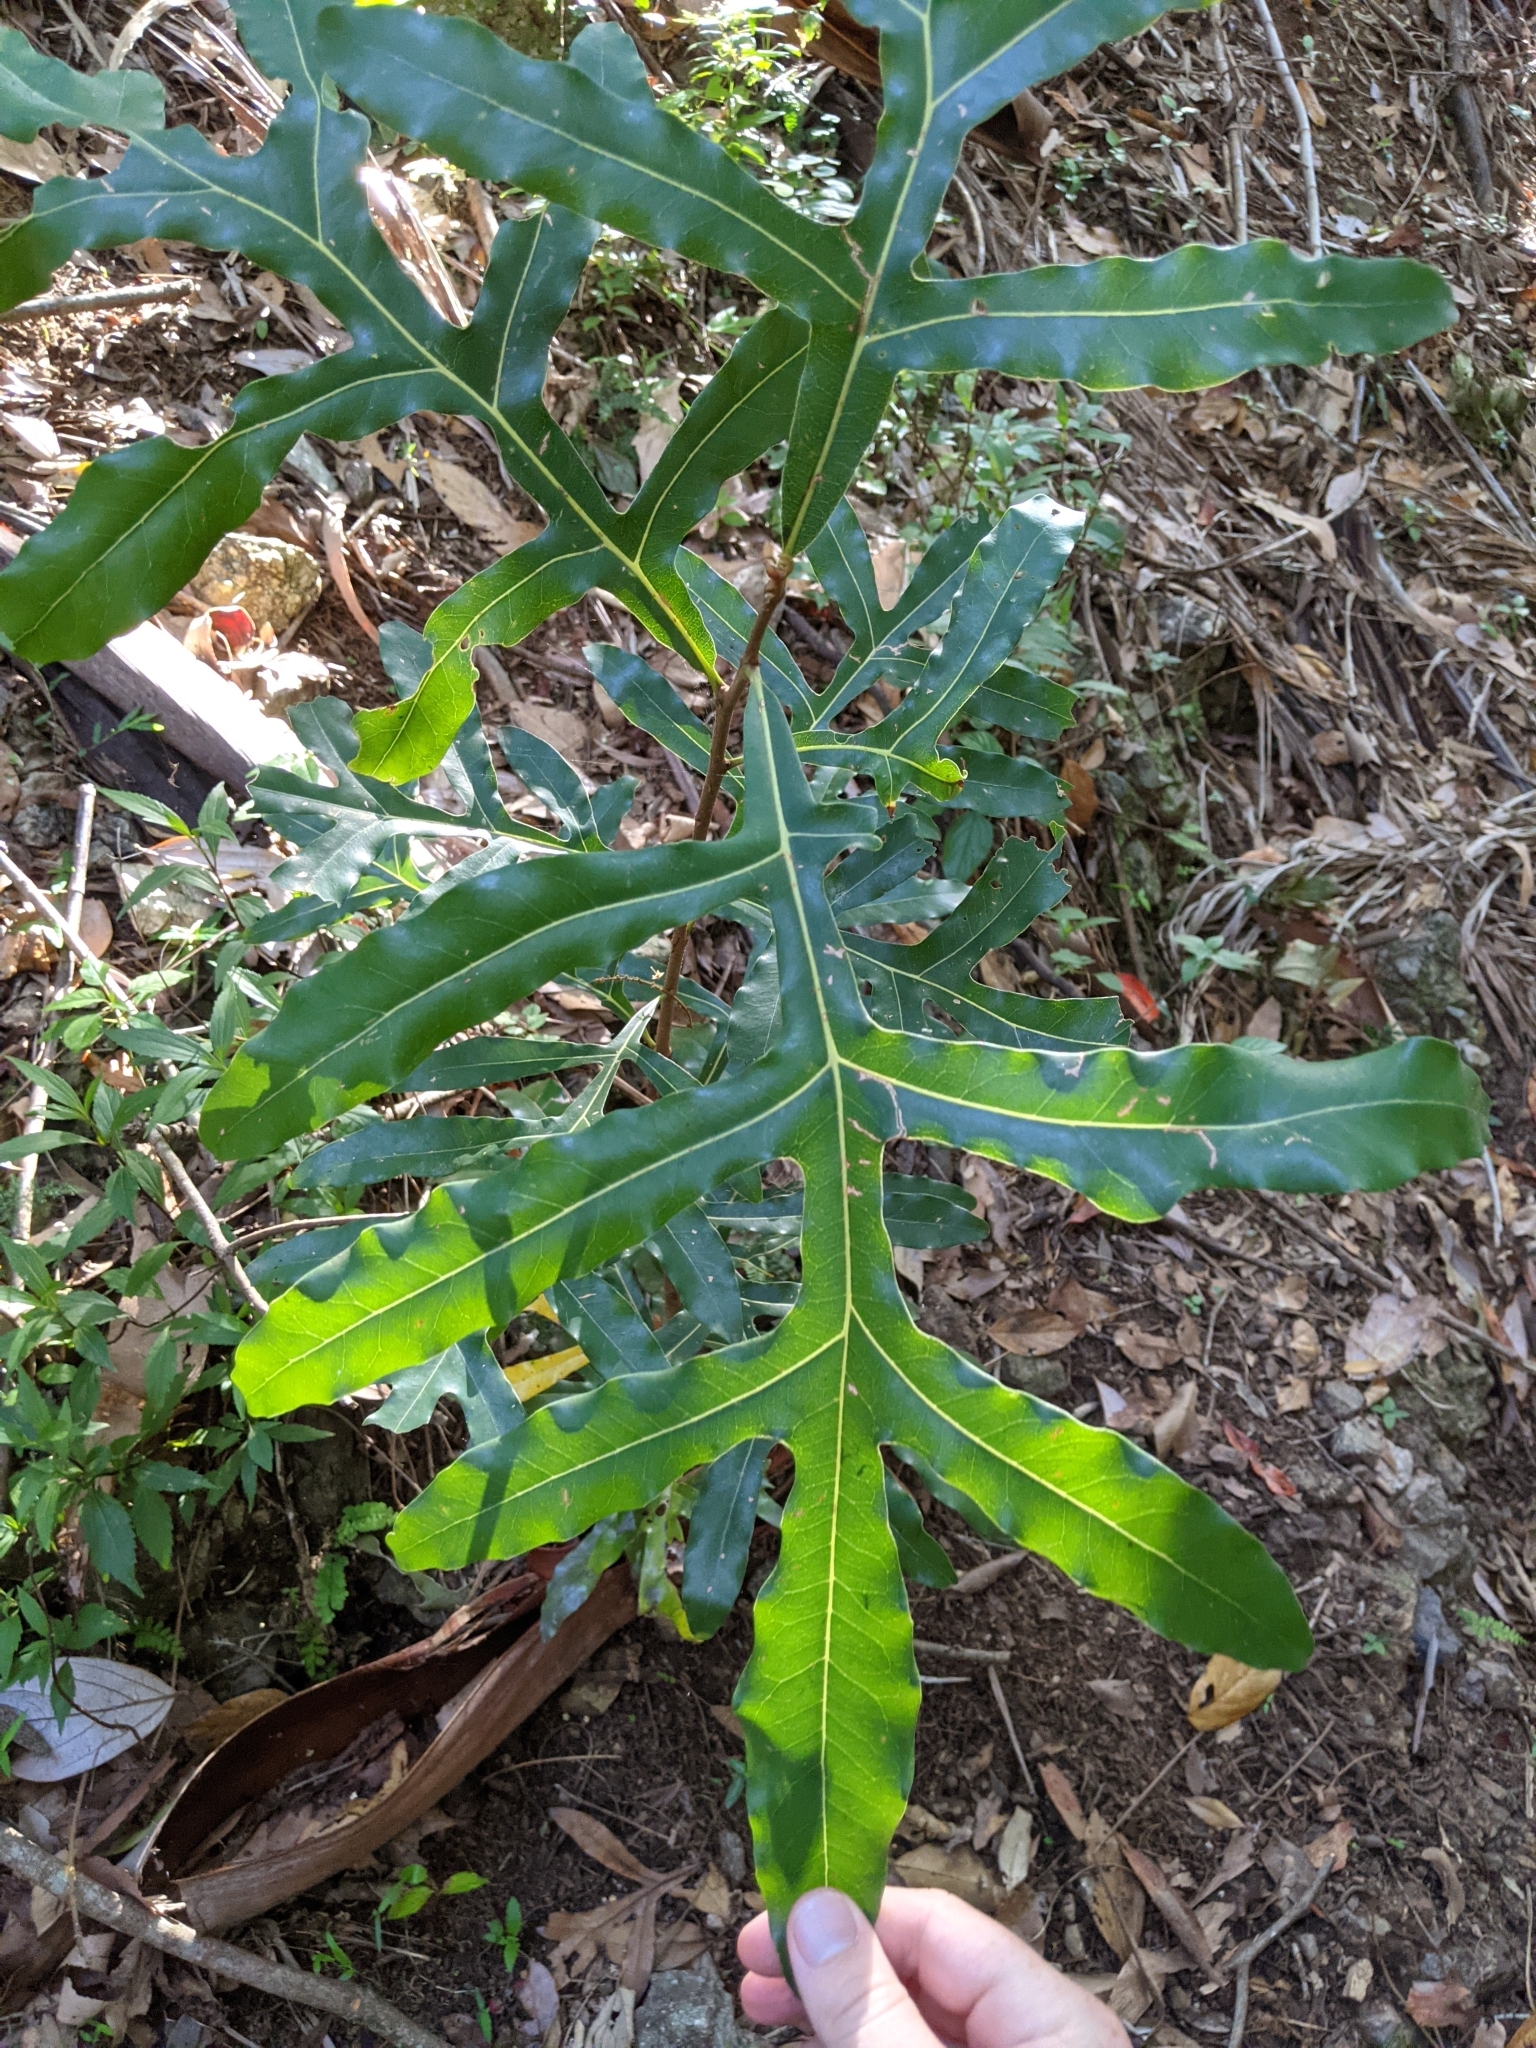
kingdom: Plantae
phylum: Tracheophyta
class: Magnoliopsida
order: Proteales
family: Proteaceae
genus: Stenocarpus
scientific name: Stenocarpus sinuatus
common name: Queensland fire-wheel-tree
